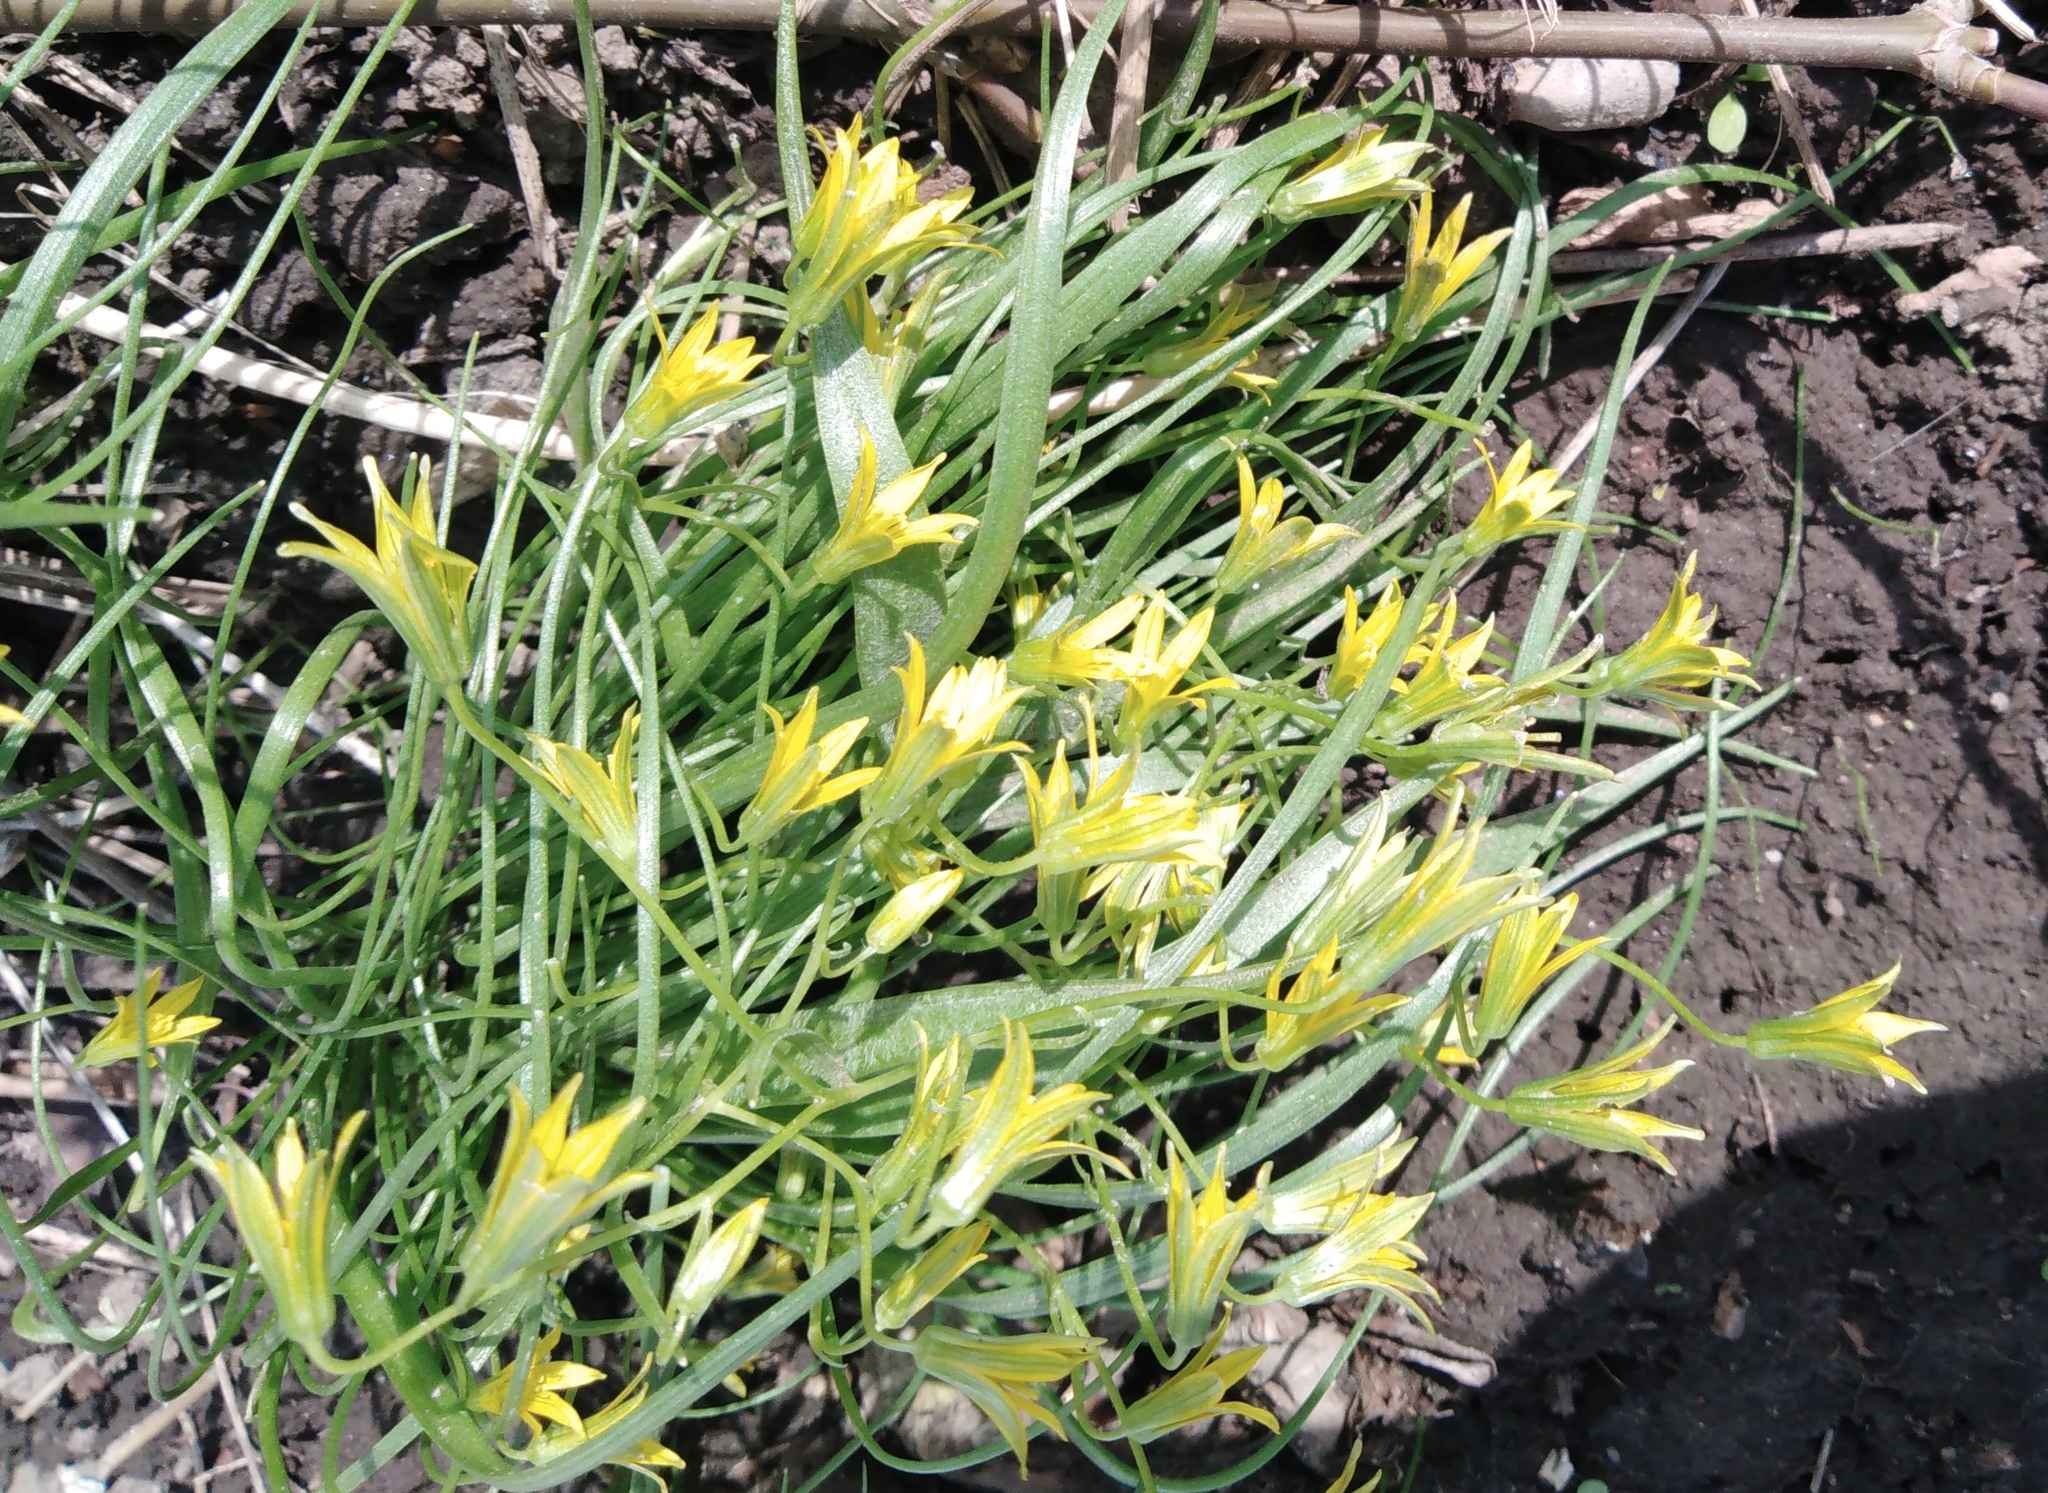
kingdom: Plantae
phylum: Tracheophyta
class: Liliopsida
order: Liliales
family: Liliaceae
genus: Gagea
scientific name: Gagea minima
